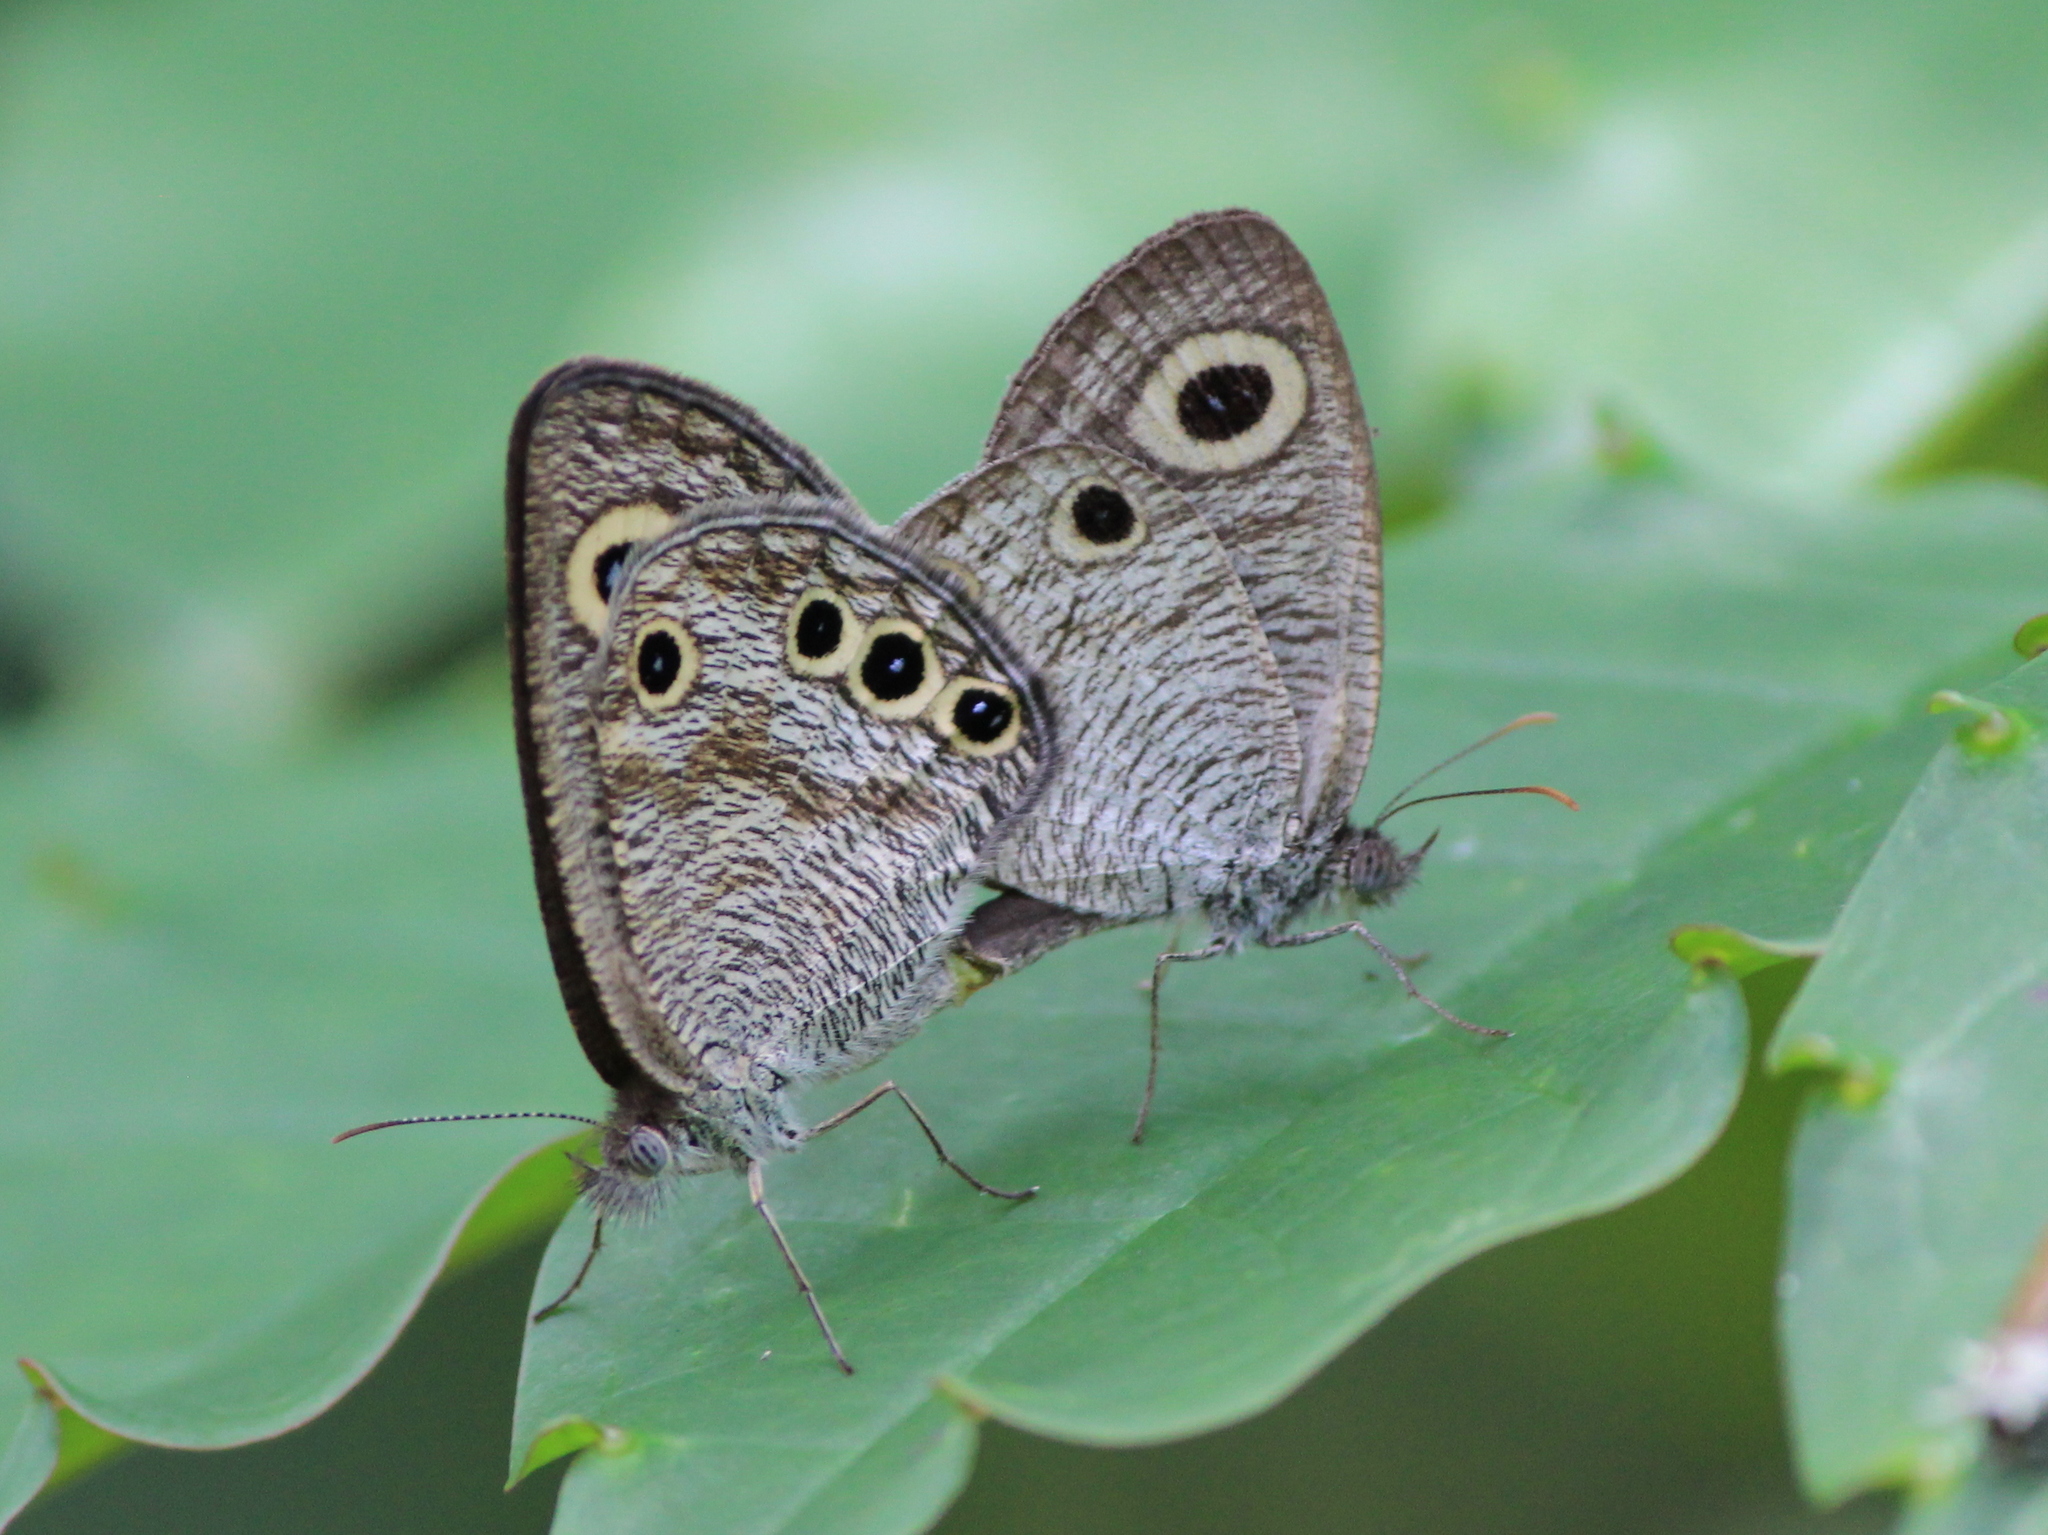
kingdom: Animalia
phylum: Arthropoda
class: Insecta
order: Lepidoptera
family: Nymphalidae
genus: Ypthima
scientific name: Ypthima huebneri
